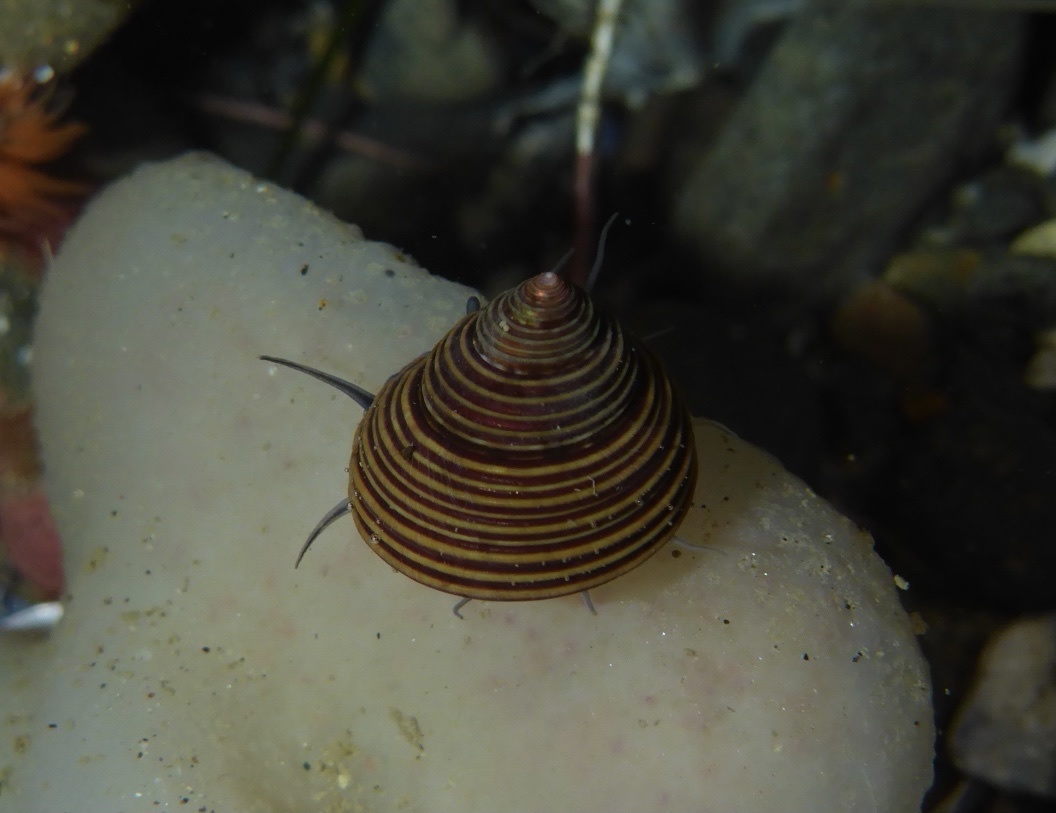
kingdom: Animalia
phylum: Mollusca
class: Gastropoda
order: Trochida
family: Calliostomatidae
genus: Calliostoma
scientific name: Calliostoma ligatum
